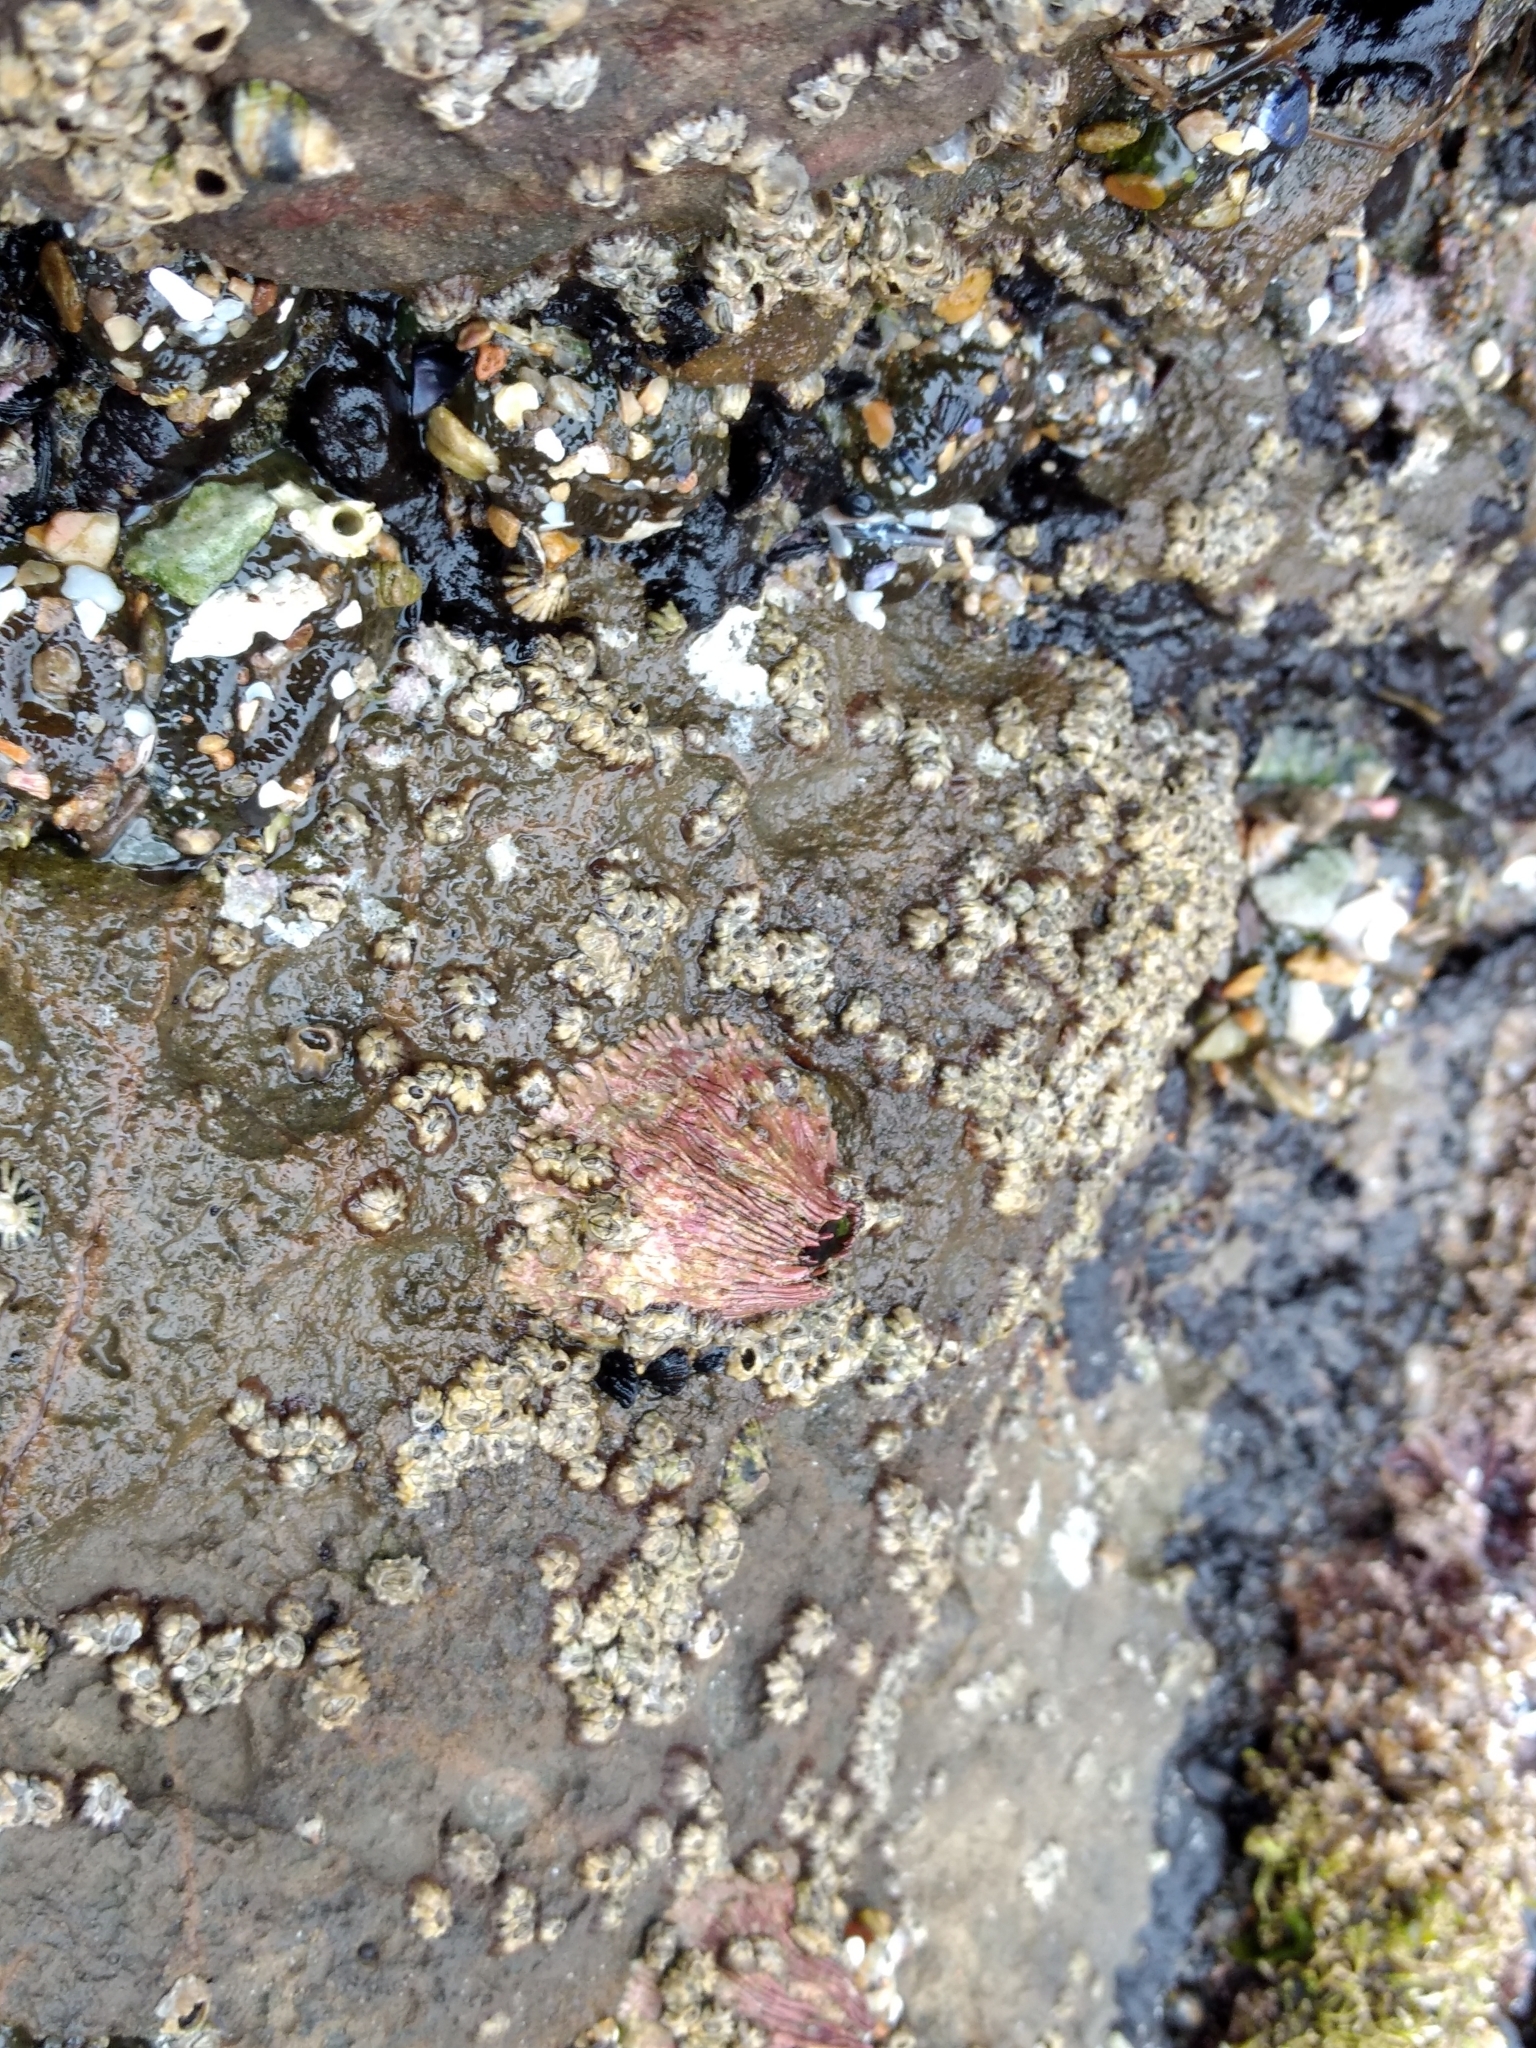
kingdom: Animalia
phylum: Arthropoda
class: Maxillopoda
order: Sessilia
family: Tetraclitidae
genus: Tetraclita
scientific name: Tetraclita rubescens
